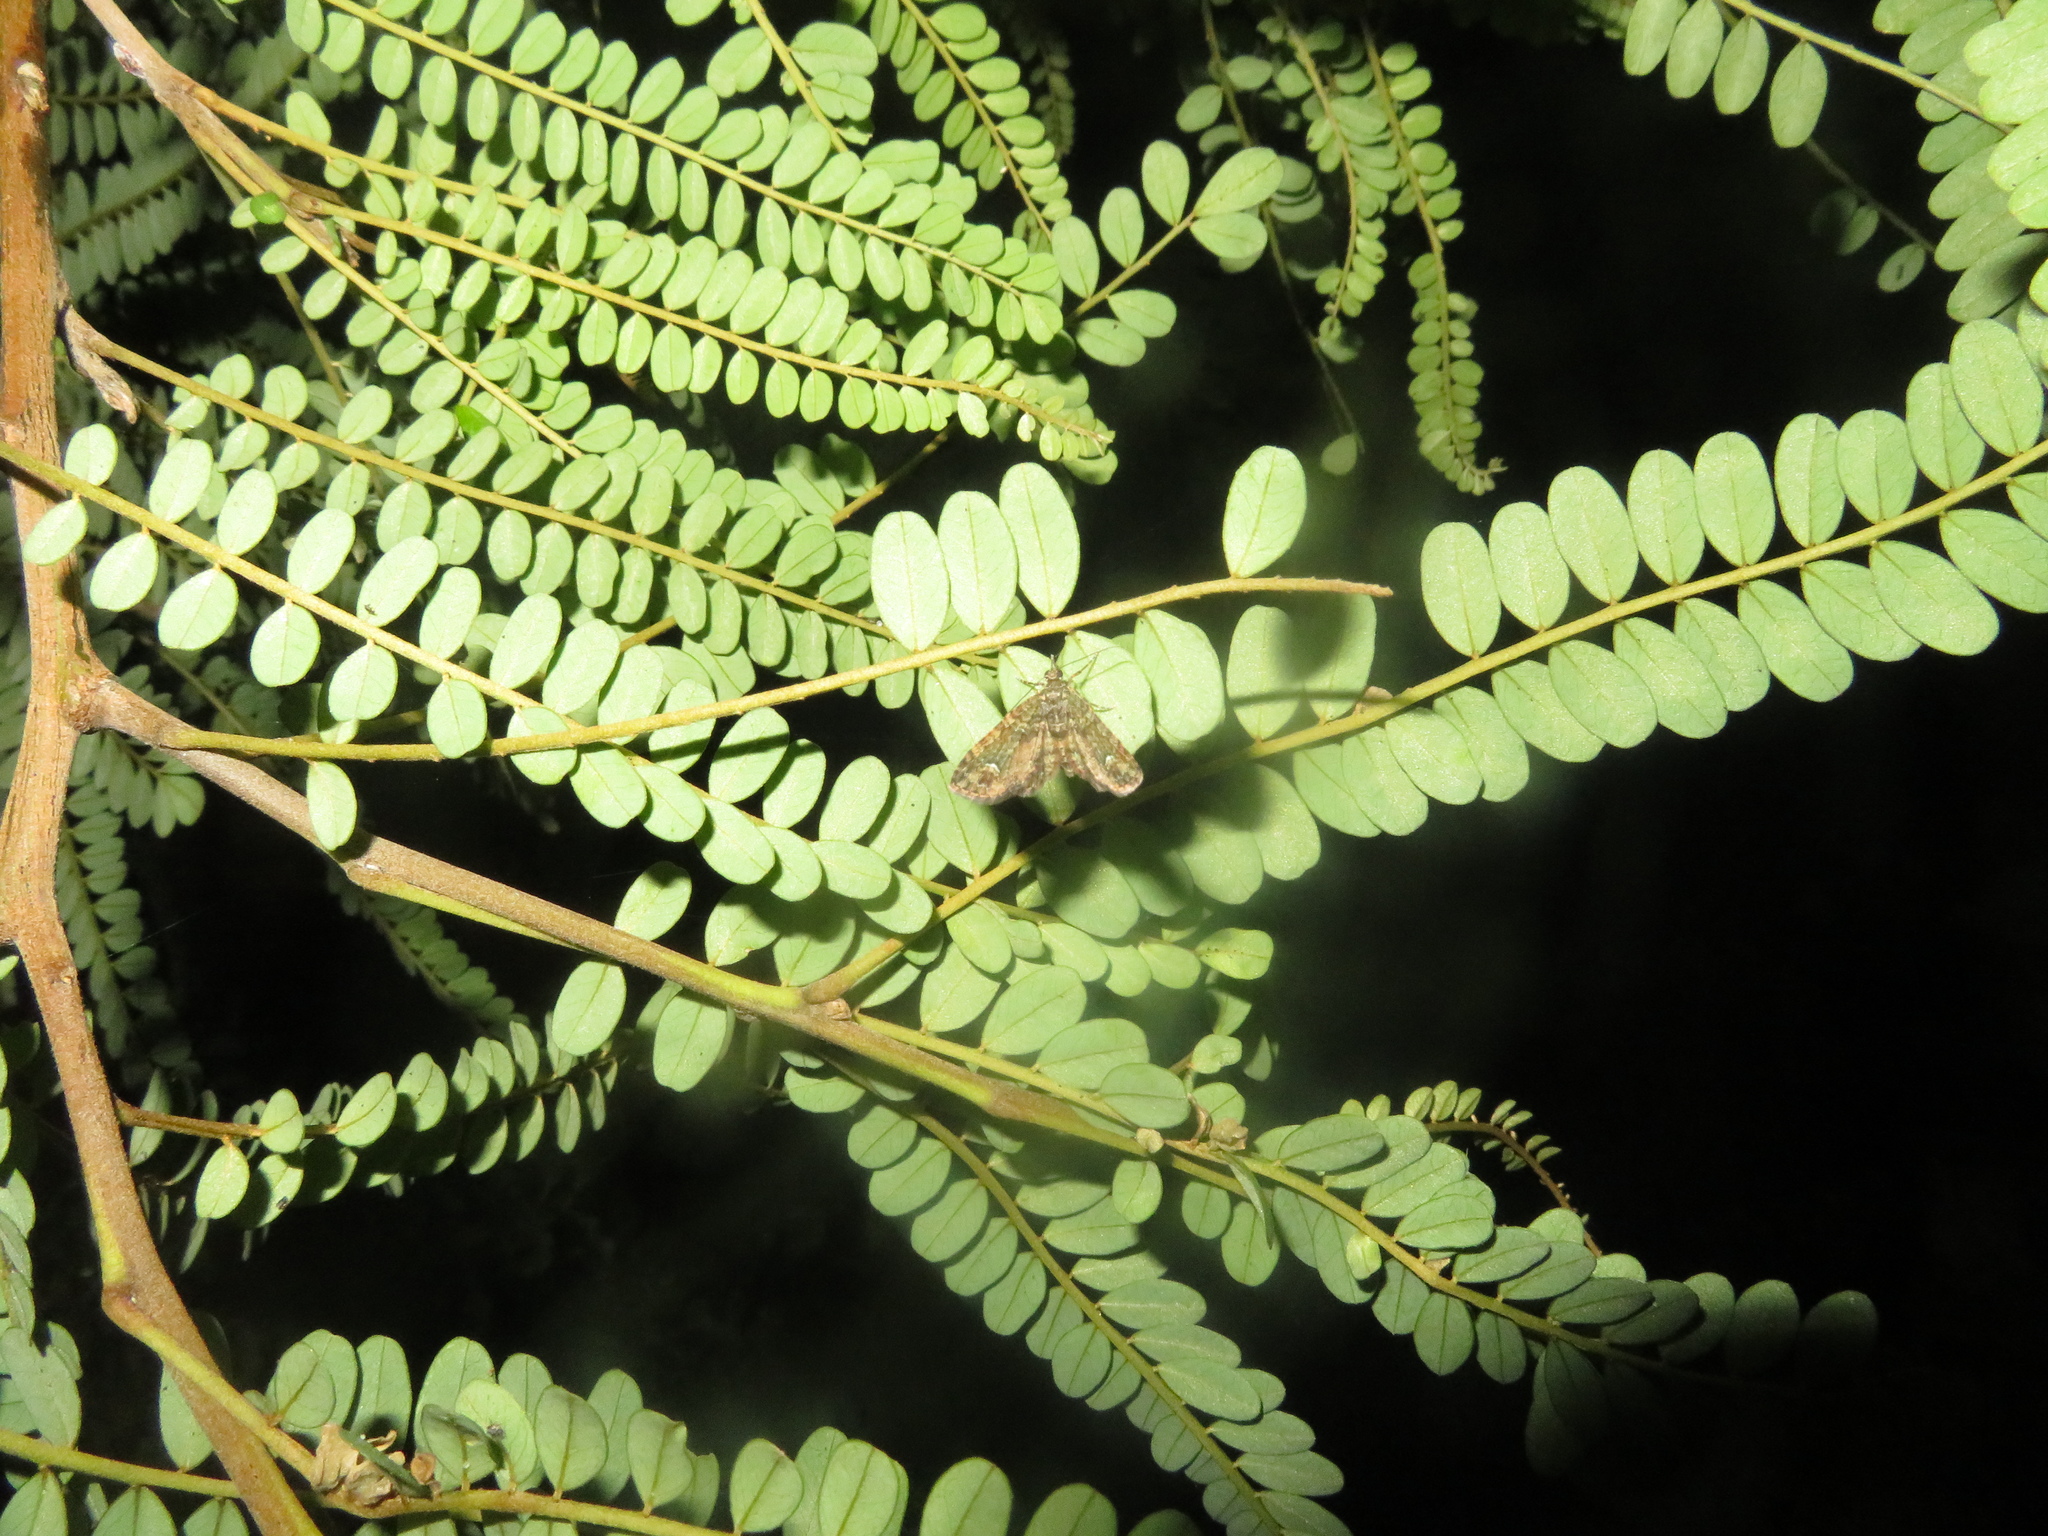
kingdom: Animalia
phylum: Arthropoda
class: Insecta
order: Lepidoptera
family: Geometridae
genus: Idaea
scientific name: Idaea mutanda
